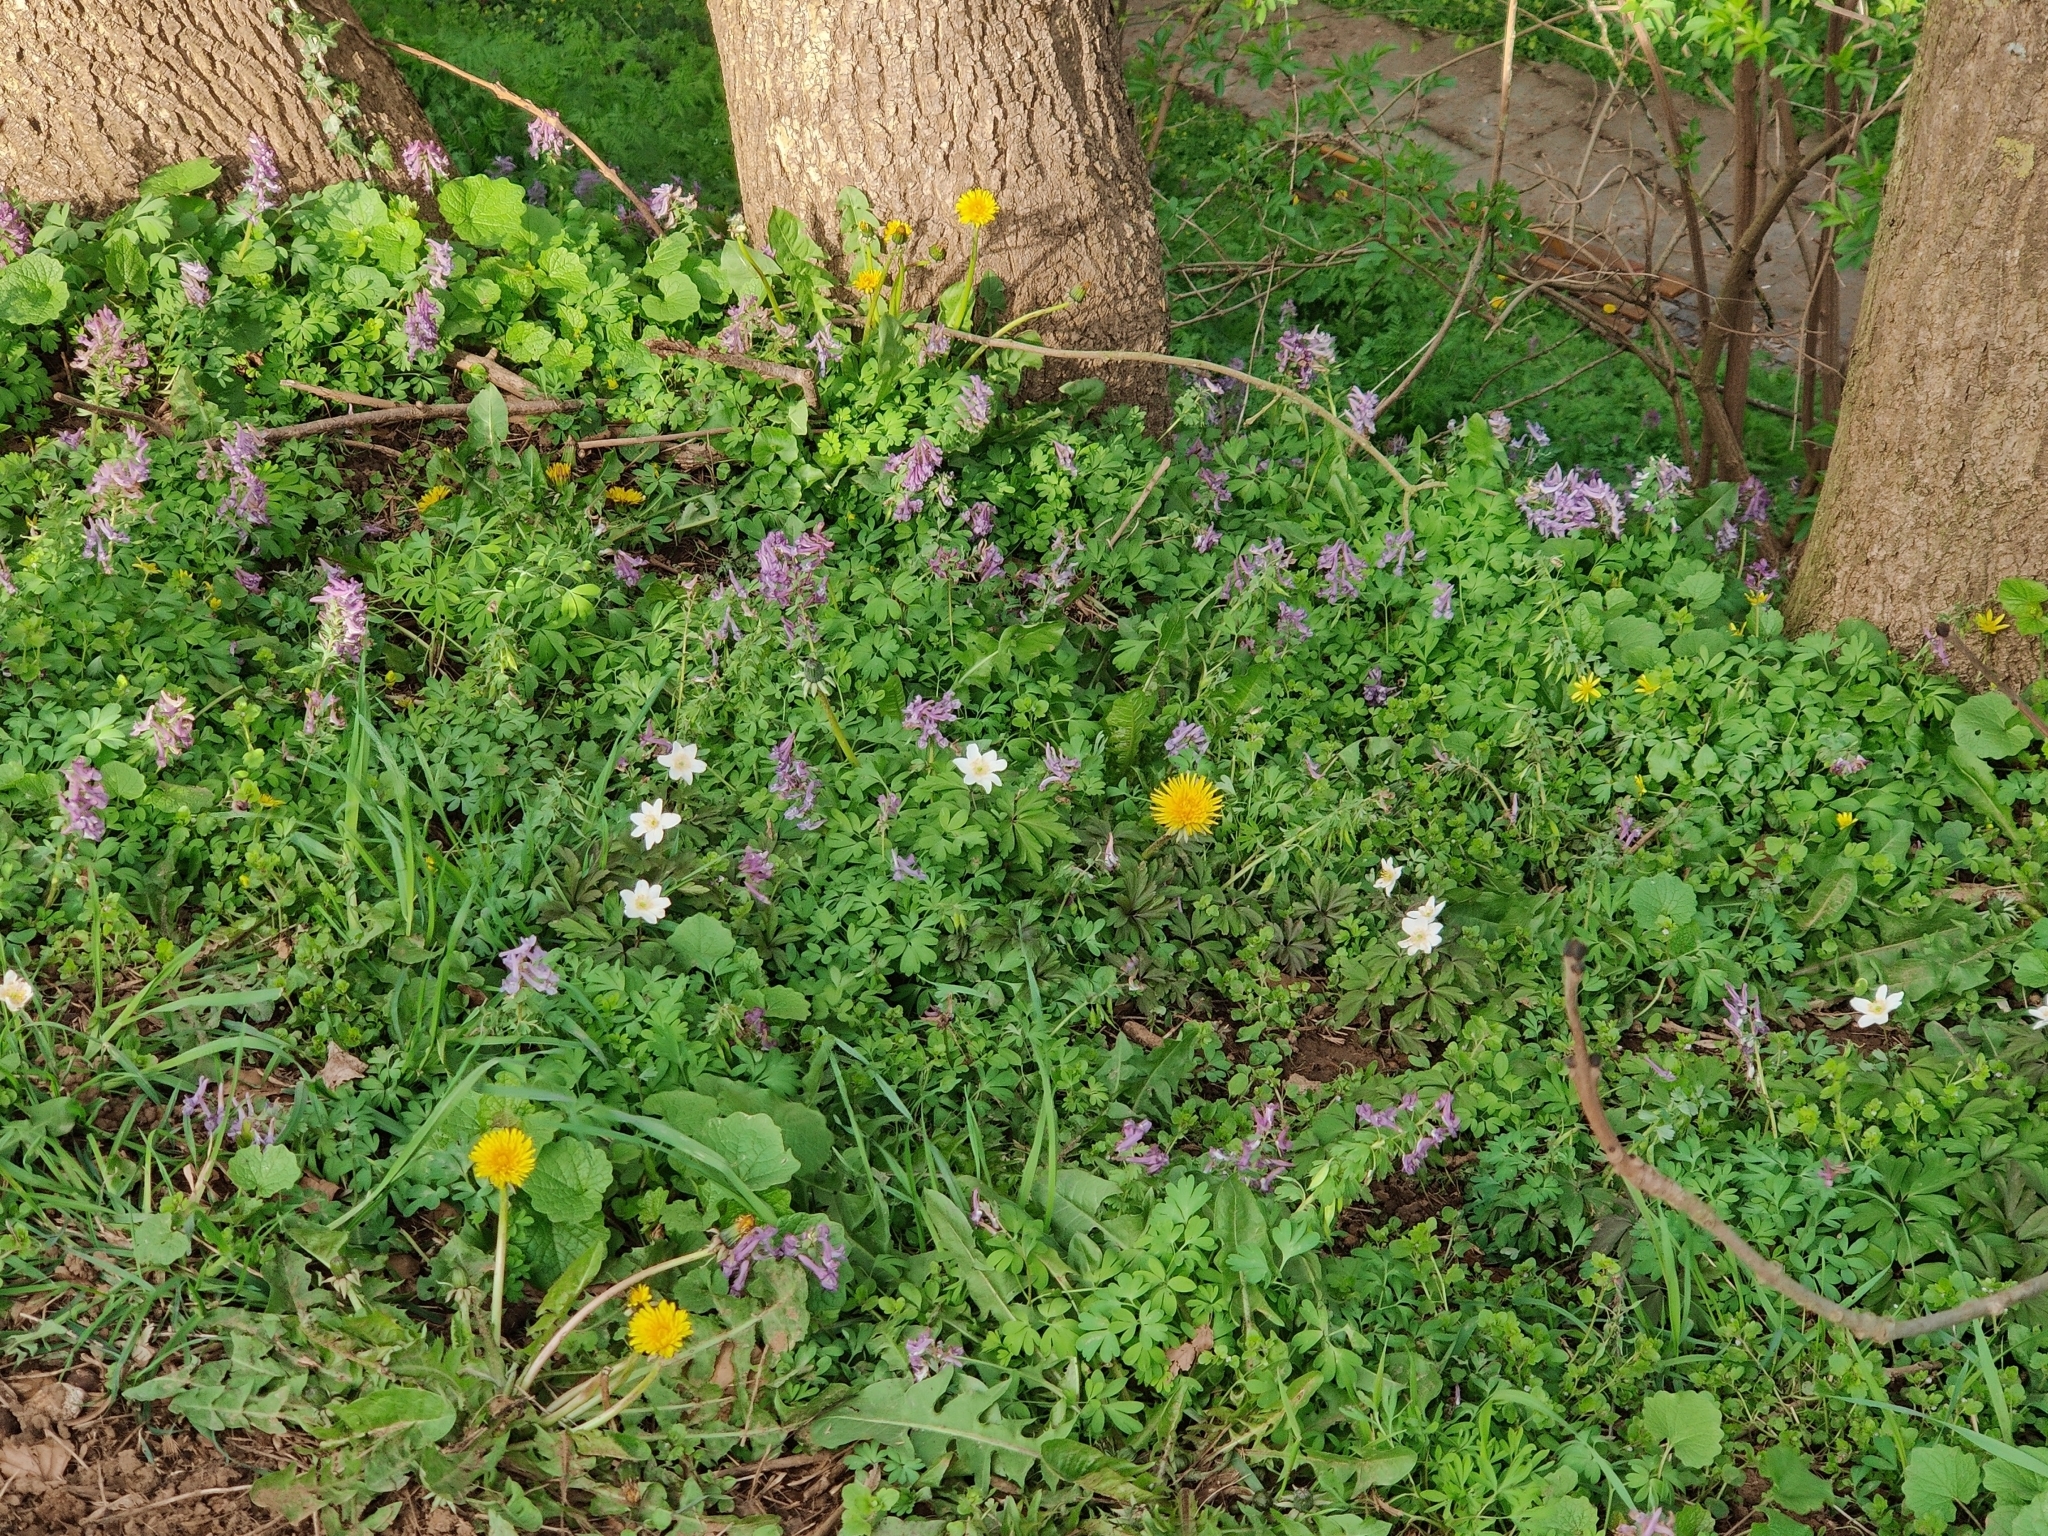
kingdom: Plantae
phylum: Tracheophyta
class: Magnoliopsida
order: Ranunculales
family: Ranunculaceae
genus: Anemone
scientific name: Anemone nemorosa
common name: Wood anemone
